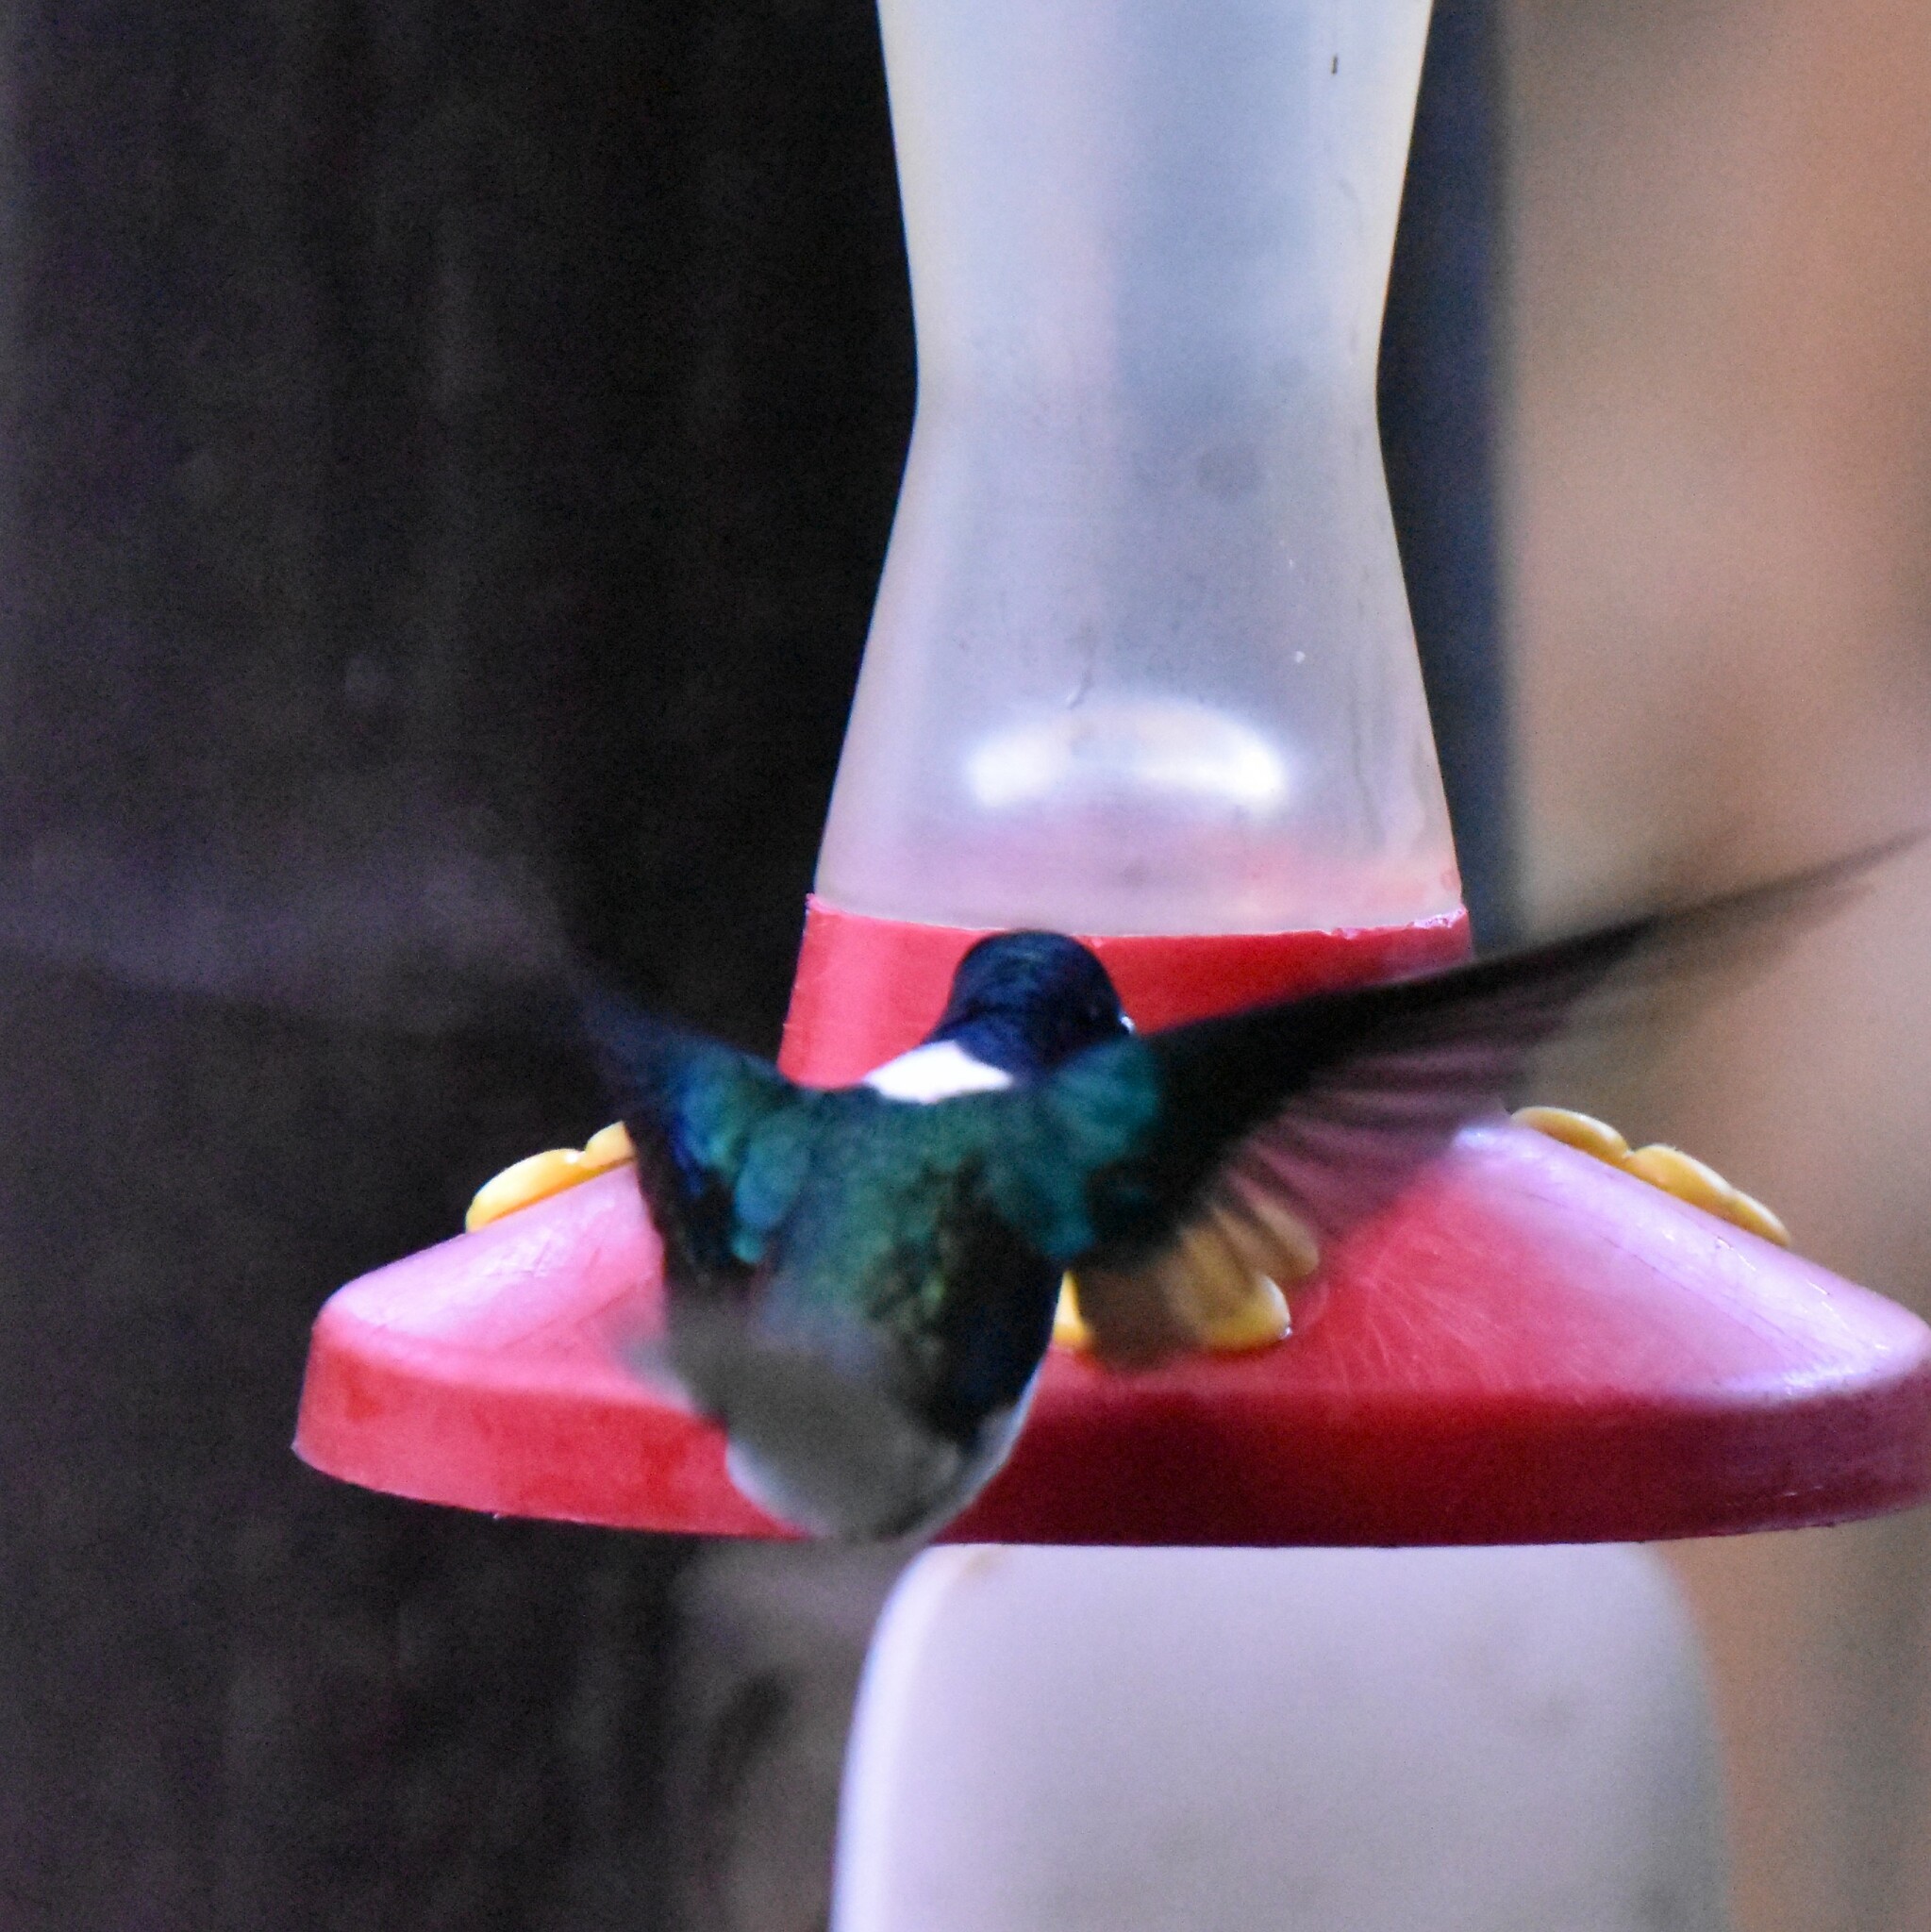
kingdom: Animalia
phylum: Chordata
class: Aves
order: Apodiformes
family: Trochilidae
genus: Florisuga
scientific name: Florisuga mellivora
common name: White-necked jacobin
